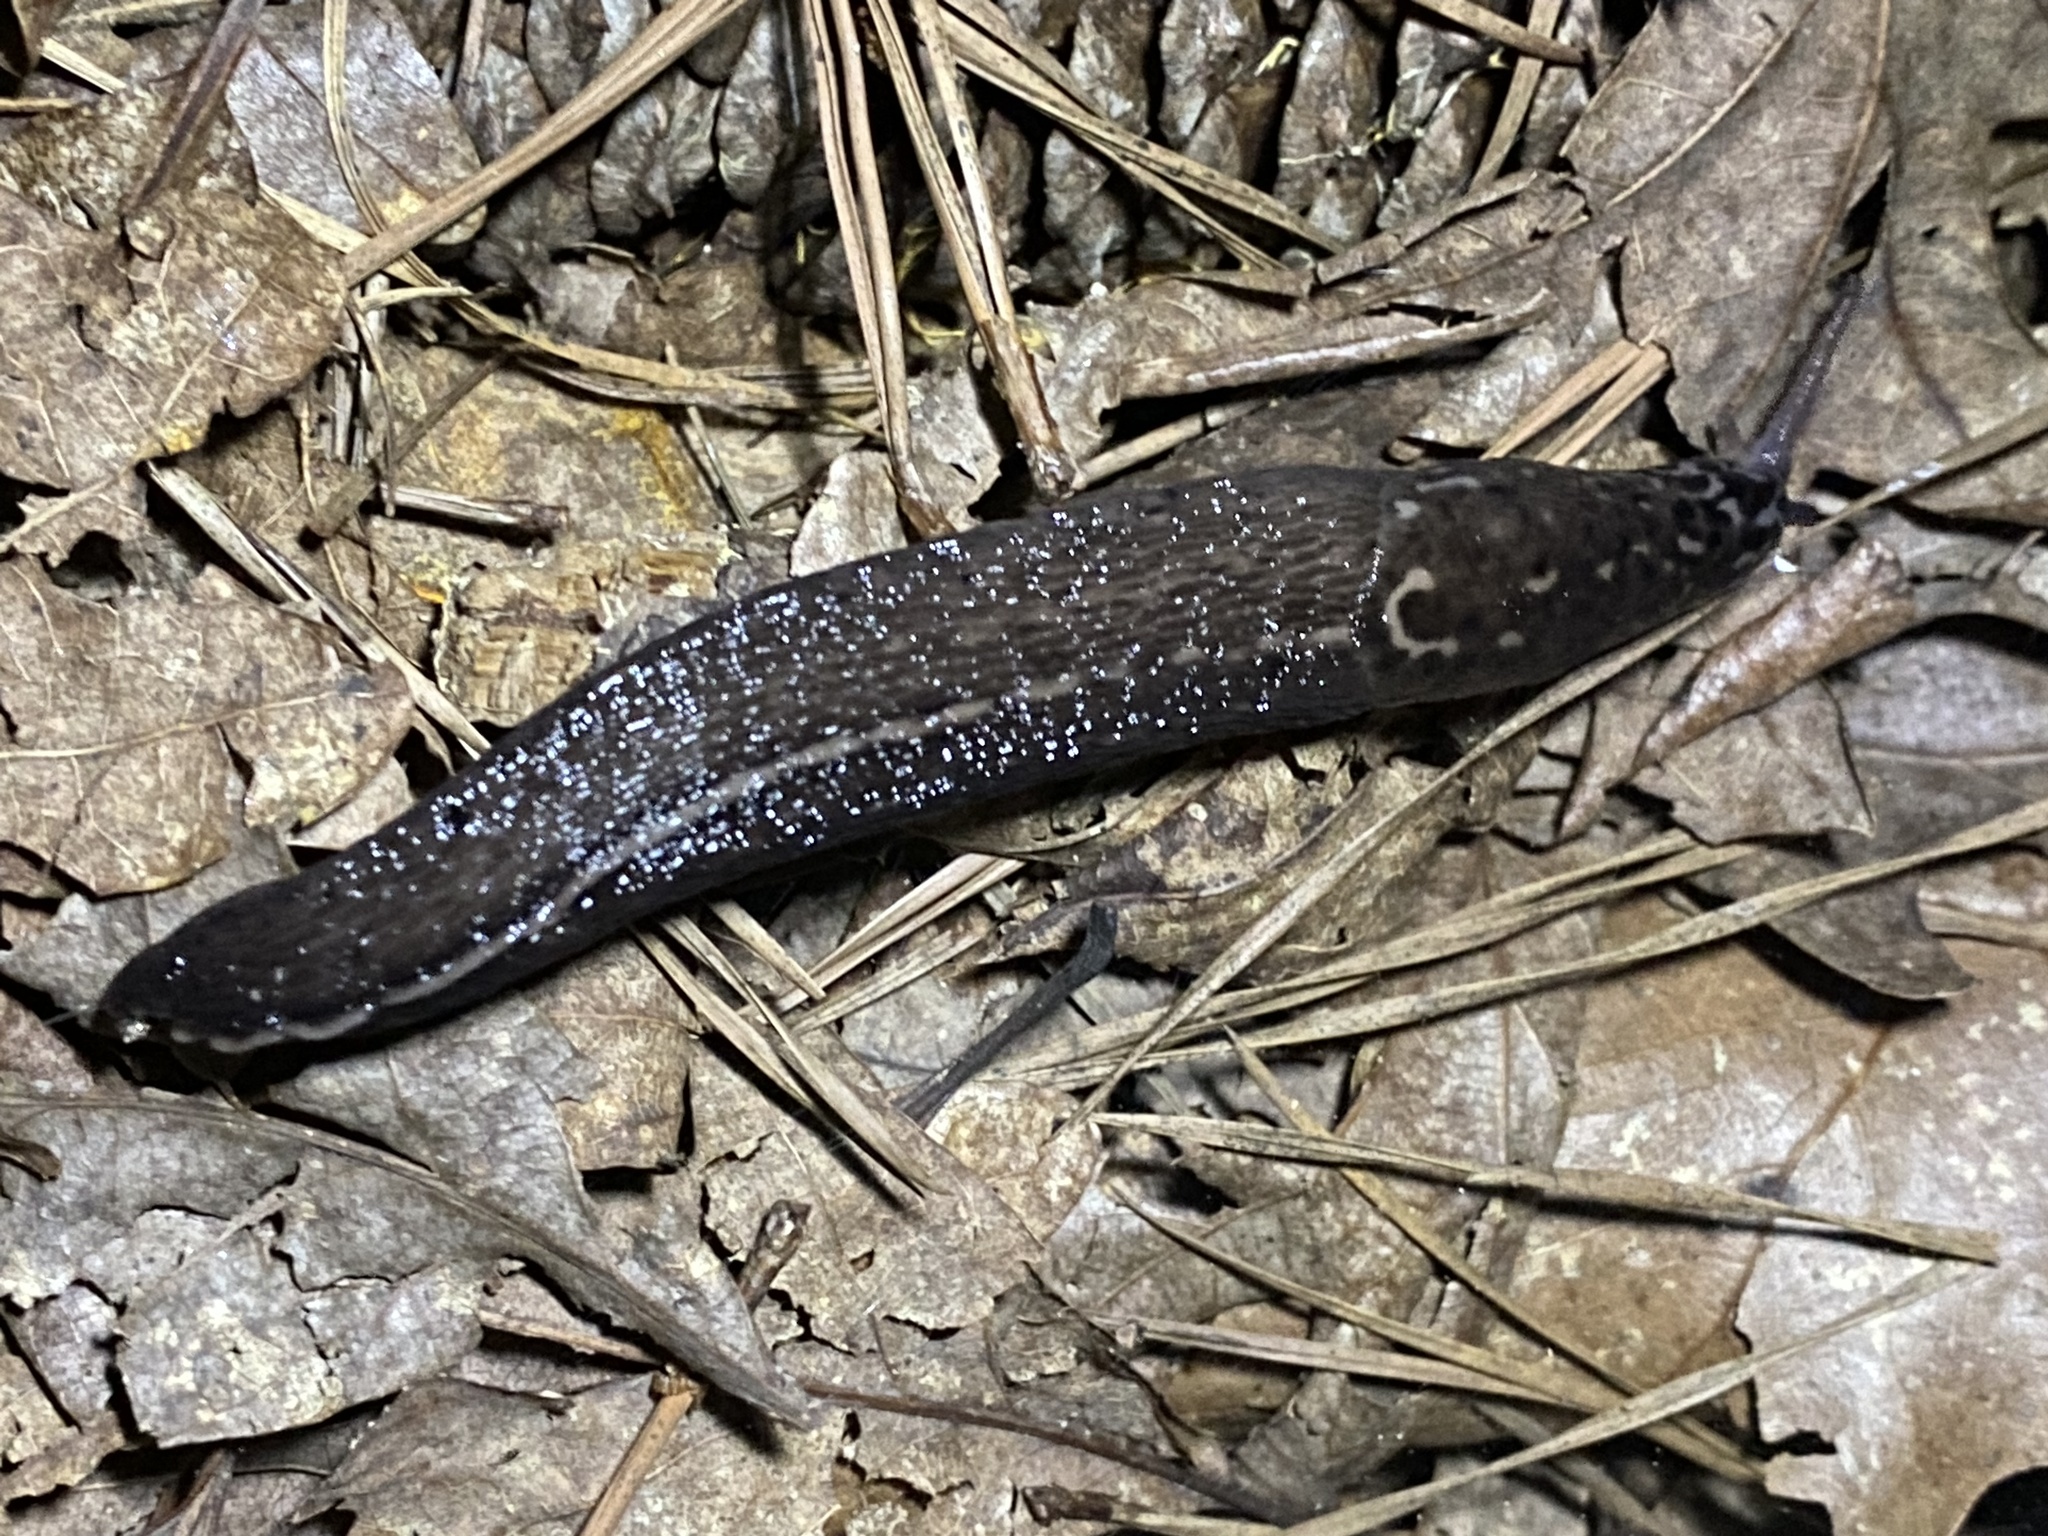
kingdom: Animalia
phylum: Mollusca
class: Gastropoda
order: Stylommatophora
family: Limacidae
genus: Limax
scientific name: Limax maximus
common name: Great grey slug
